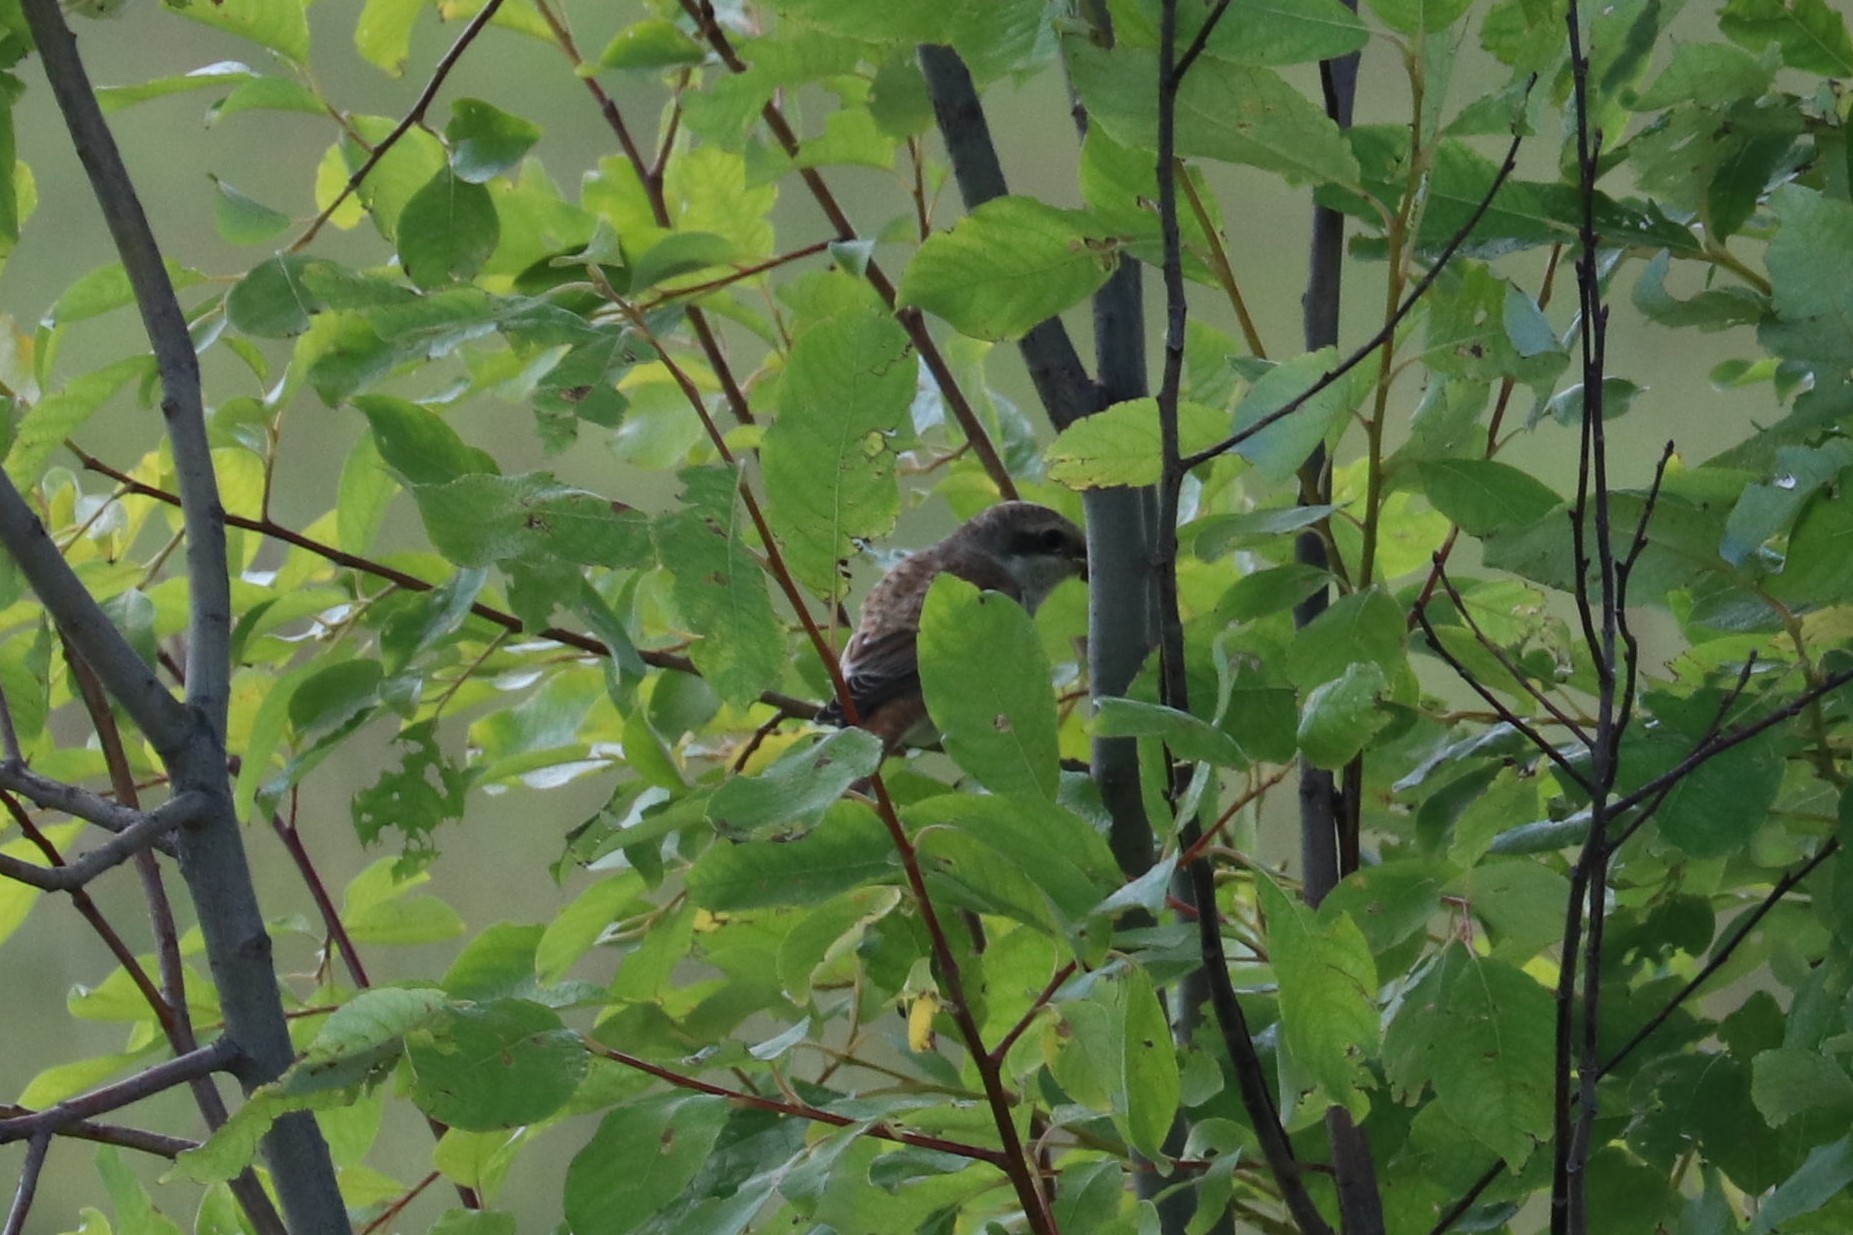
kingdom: Animalia
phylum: Chordata
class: Aves
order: Passeriformes
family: Laniidae
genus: Lanius
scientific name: Lanius collurio
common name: Red-backed shrike
